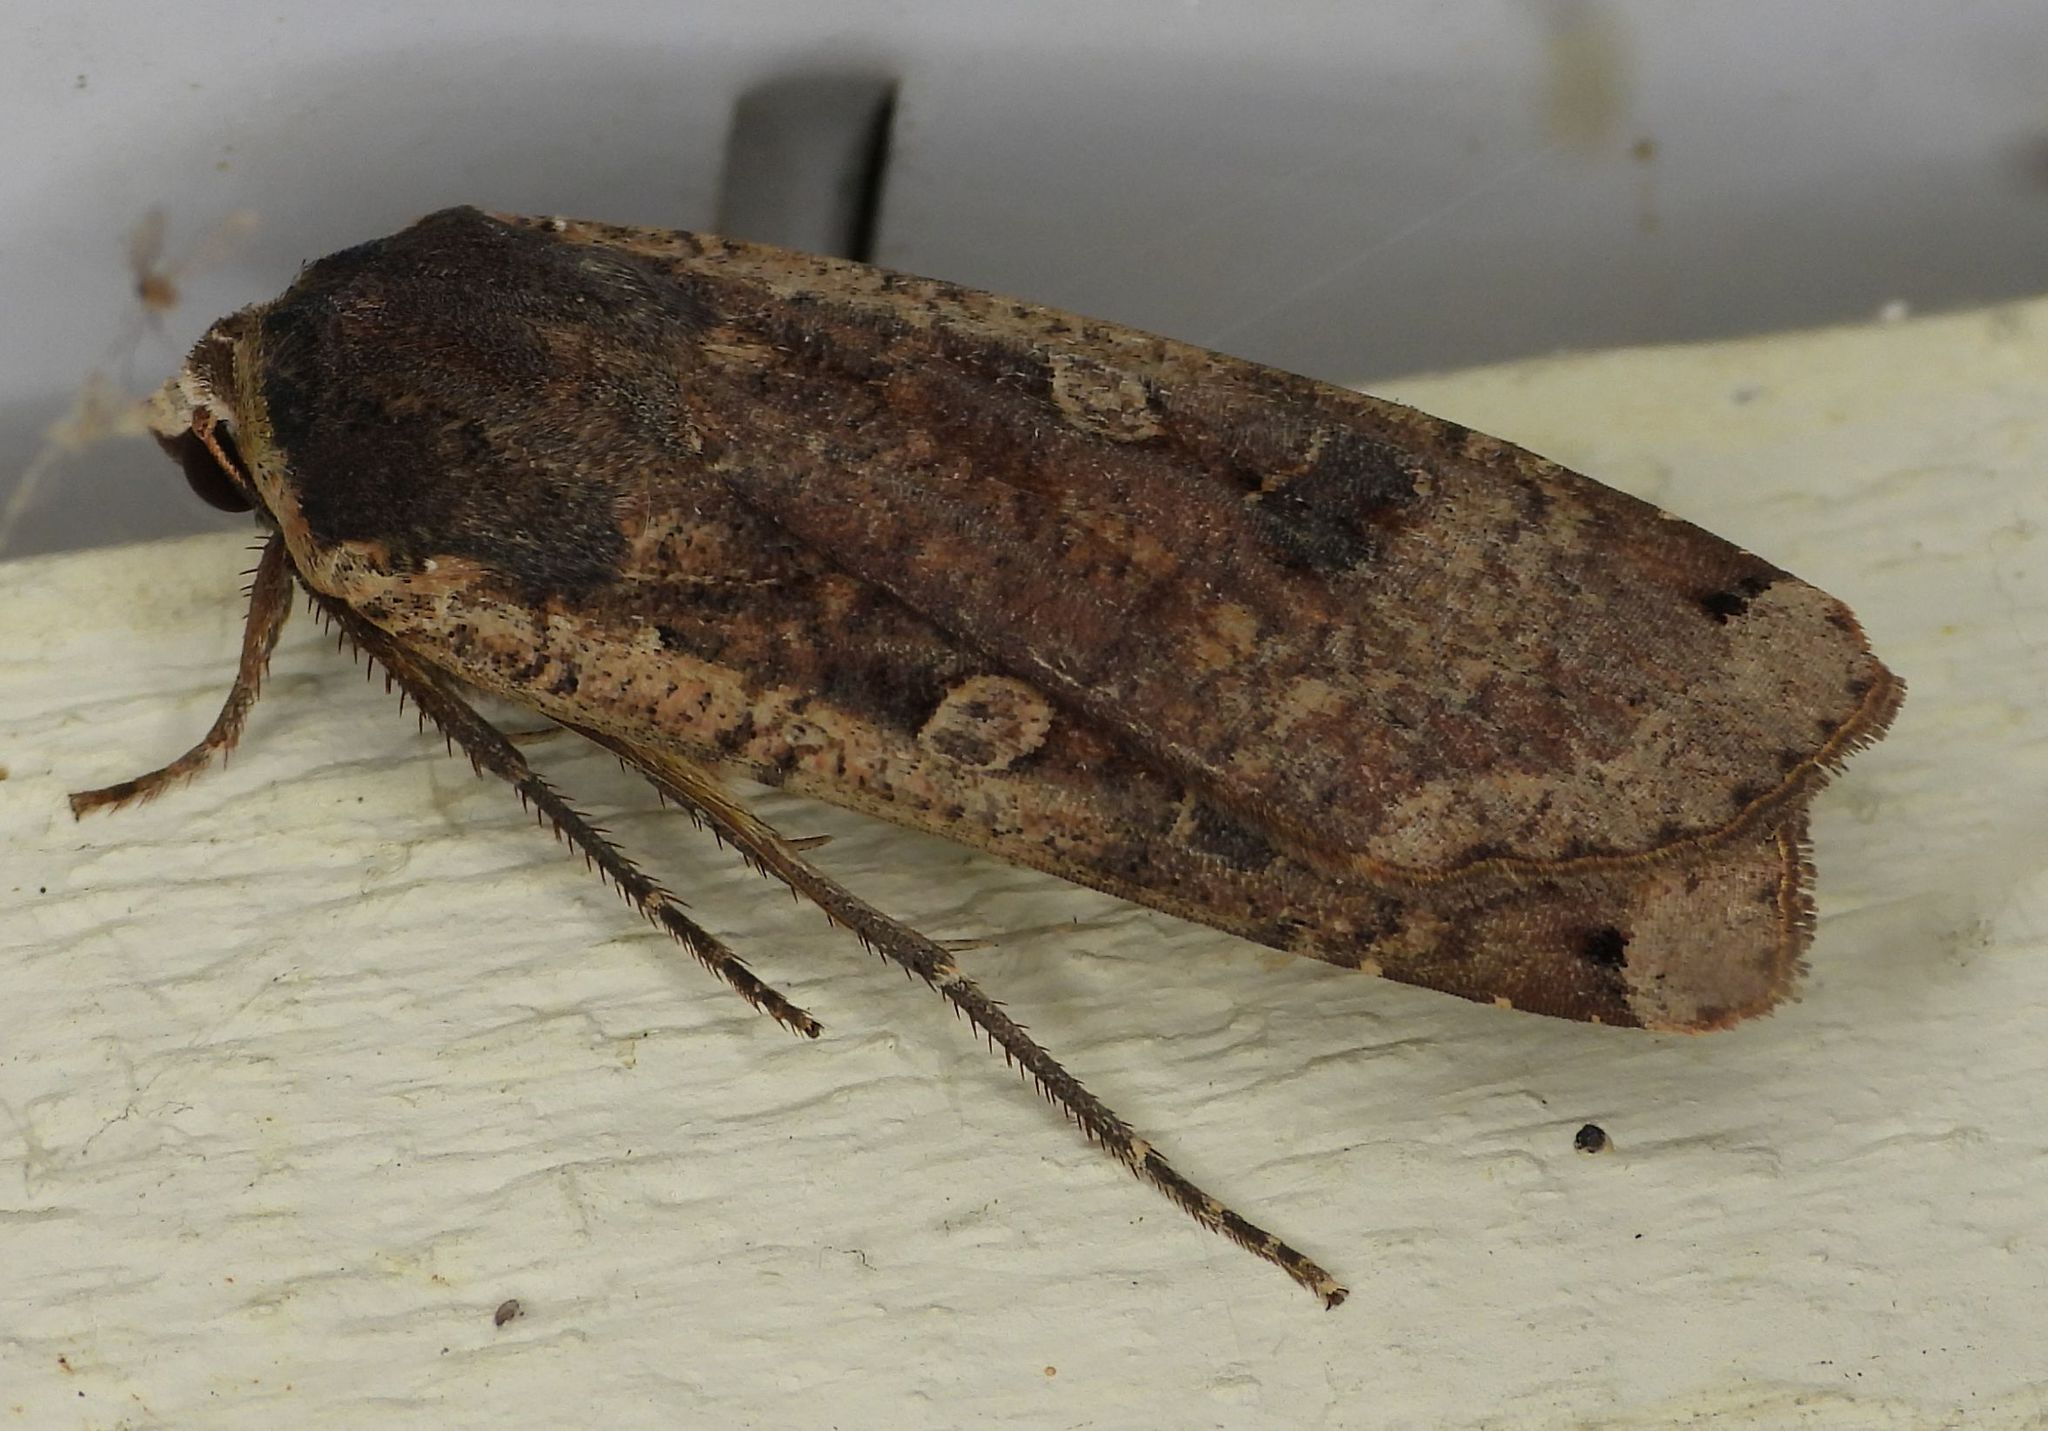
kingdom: Animalia
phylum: Arthropoda
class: Insecta
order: Lepidoptera
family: Noctuidae
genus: Noctua
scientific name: Noctua pronuba
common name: Large yellow underwing
